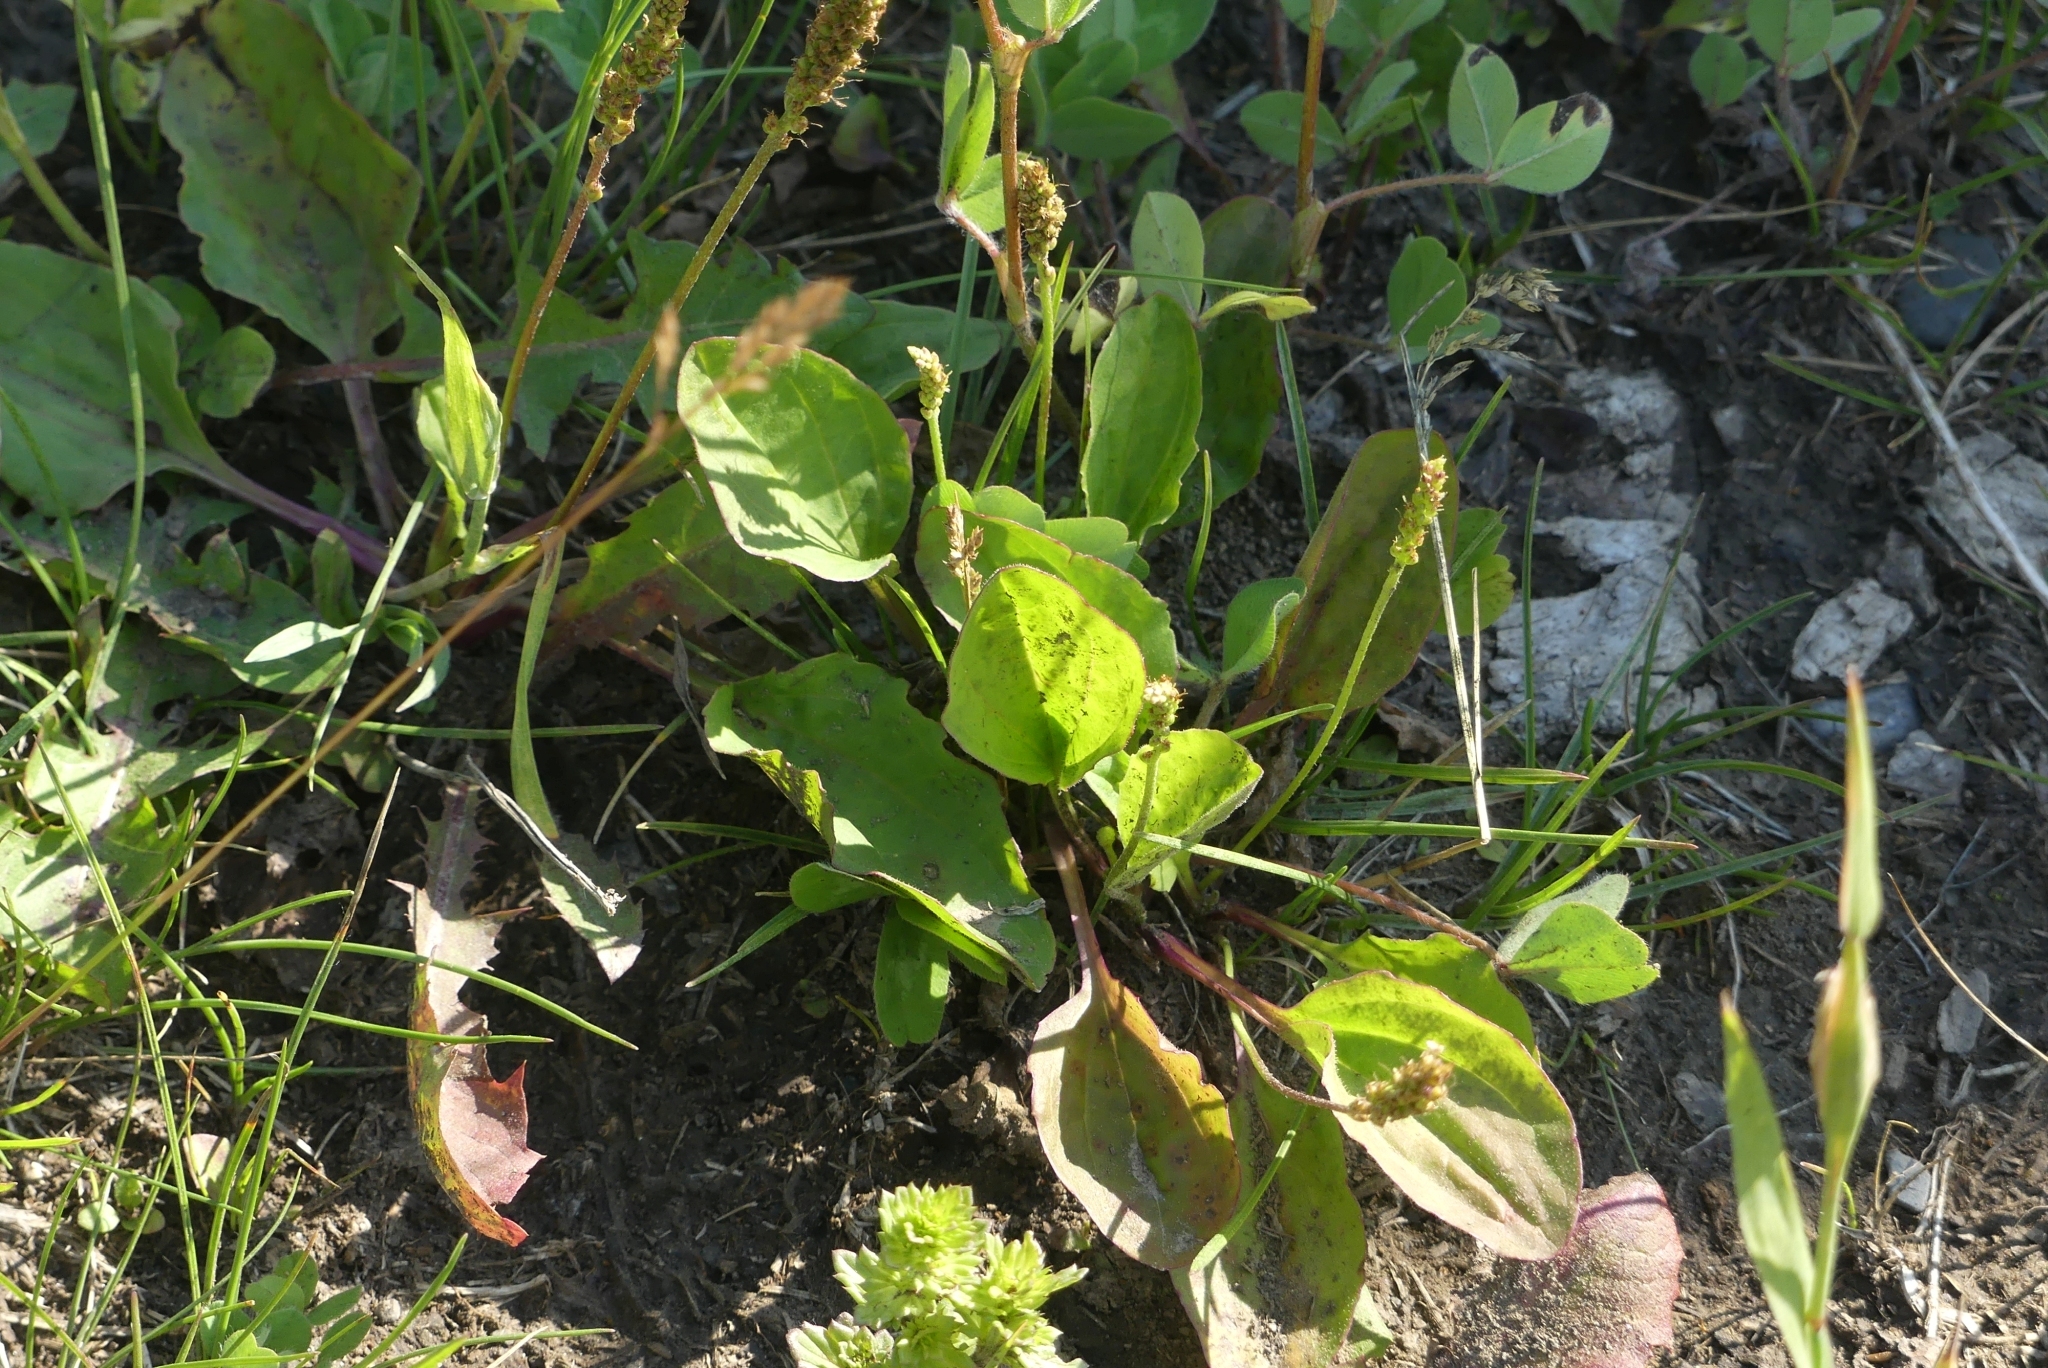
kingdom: Plantae
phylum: Tracheophyta
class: Magnoliopsida
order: Lamiales
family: Plantaginaceae
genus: Plantago
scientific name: Plantago major
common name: Common plantain
